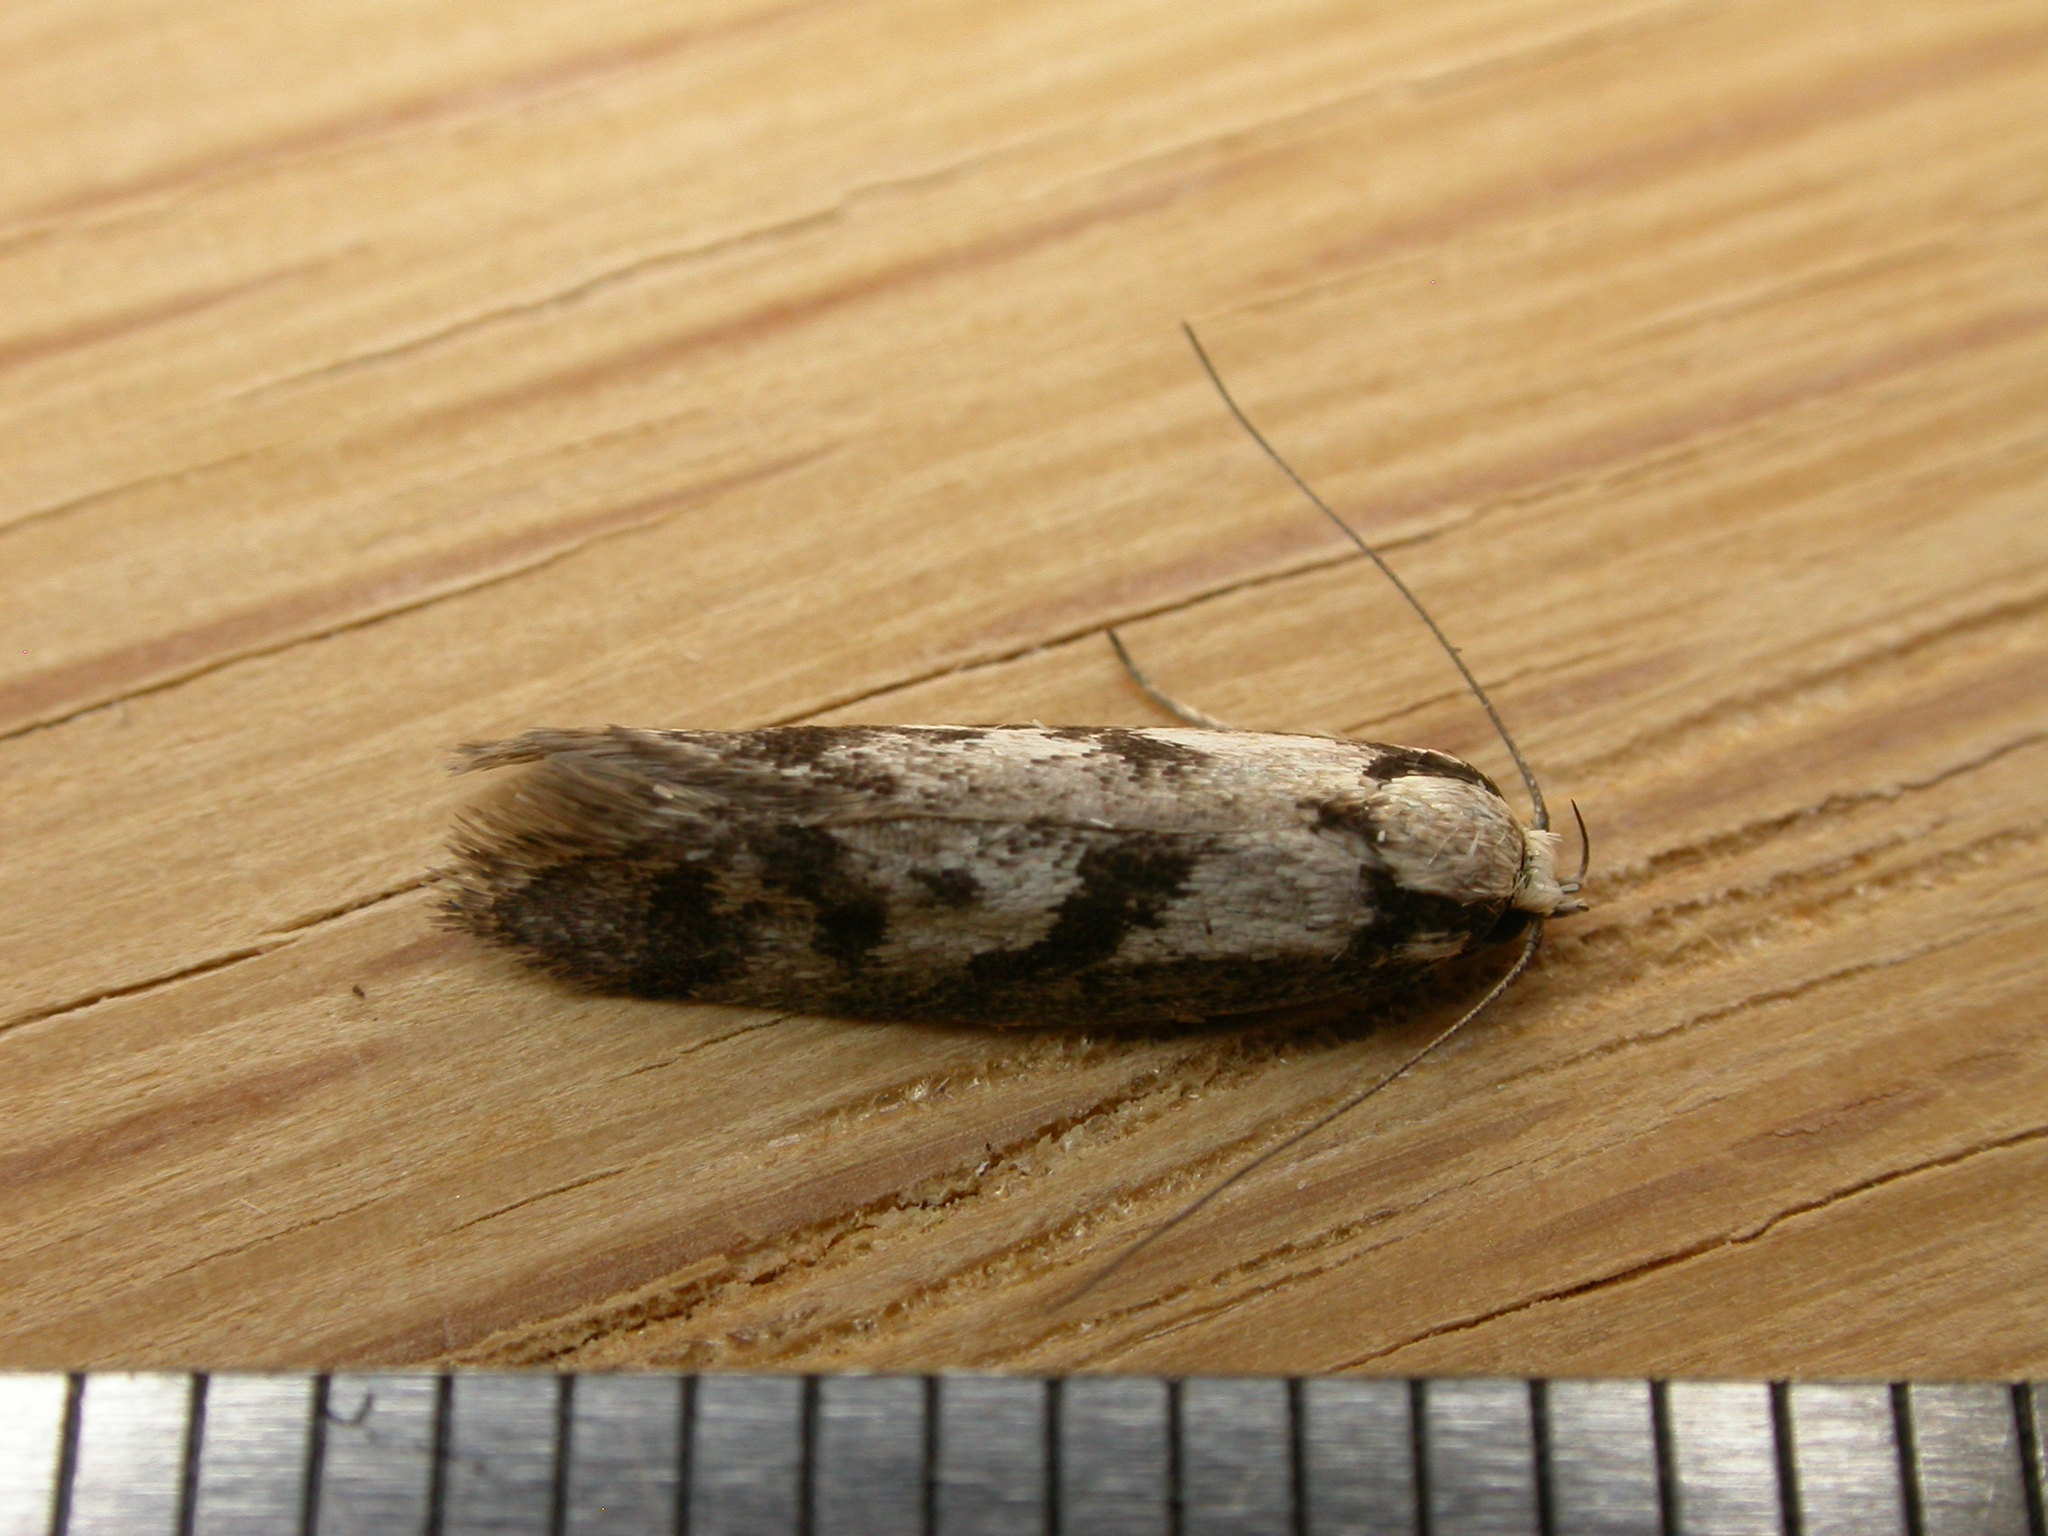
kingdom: Animalia
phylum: Arthropoda
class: Insecta
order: Lepidoptera
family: Oecophoridae
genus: Eusemocosma
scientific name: Eusemocosma pruinosa
